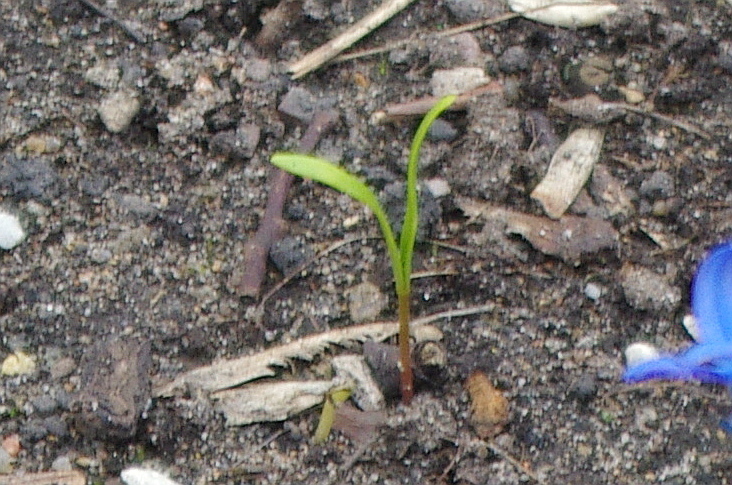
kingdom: Plantae
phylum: Tracheophyta
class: Magnoliopsida
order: Sapindales
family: Sapindaceae
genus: Acer
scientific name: Acer negundo
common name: Ashleaf maple
